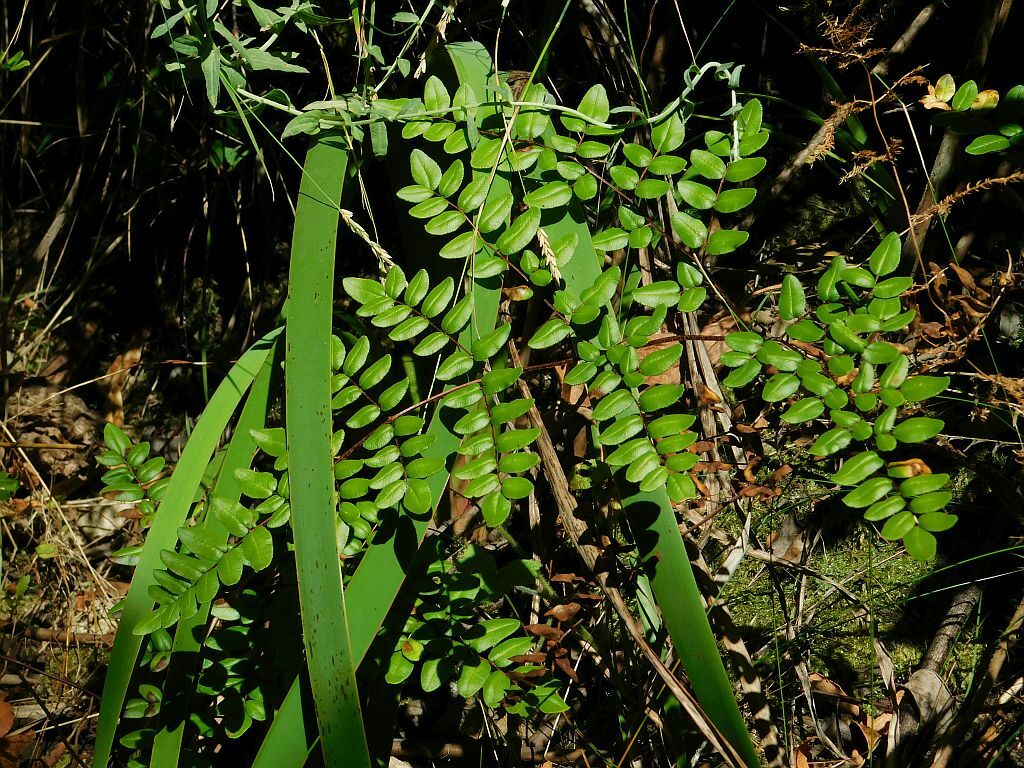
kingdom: Plantae
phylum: Tracheophyta
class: Polypodiopsida
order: Polypodiales
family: Pteridaceae
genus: Pellaea
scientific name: Pellaea pteroides
